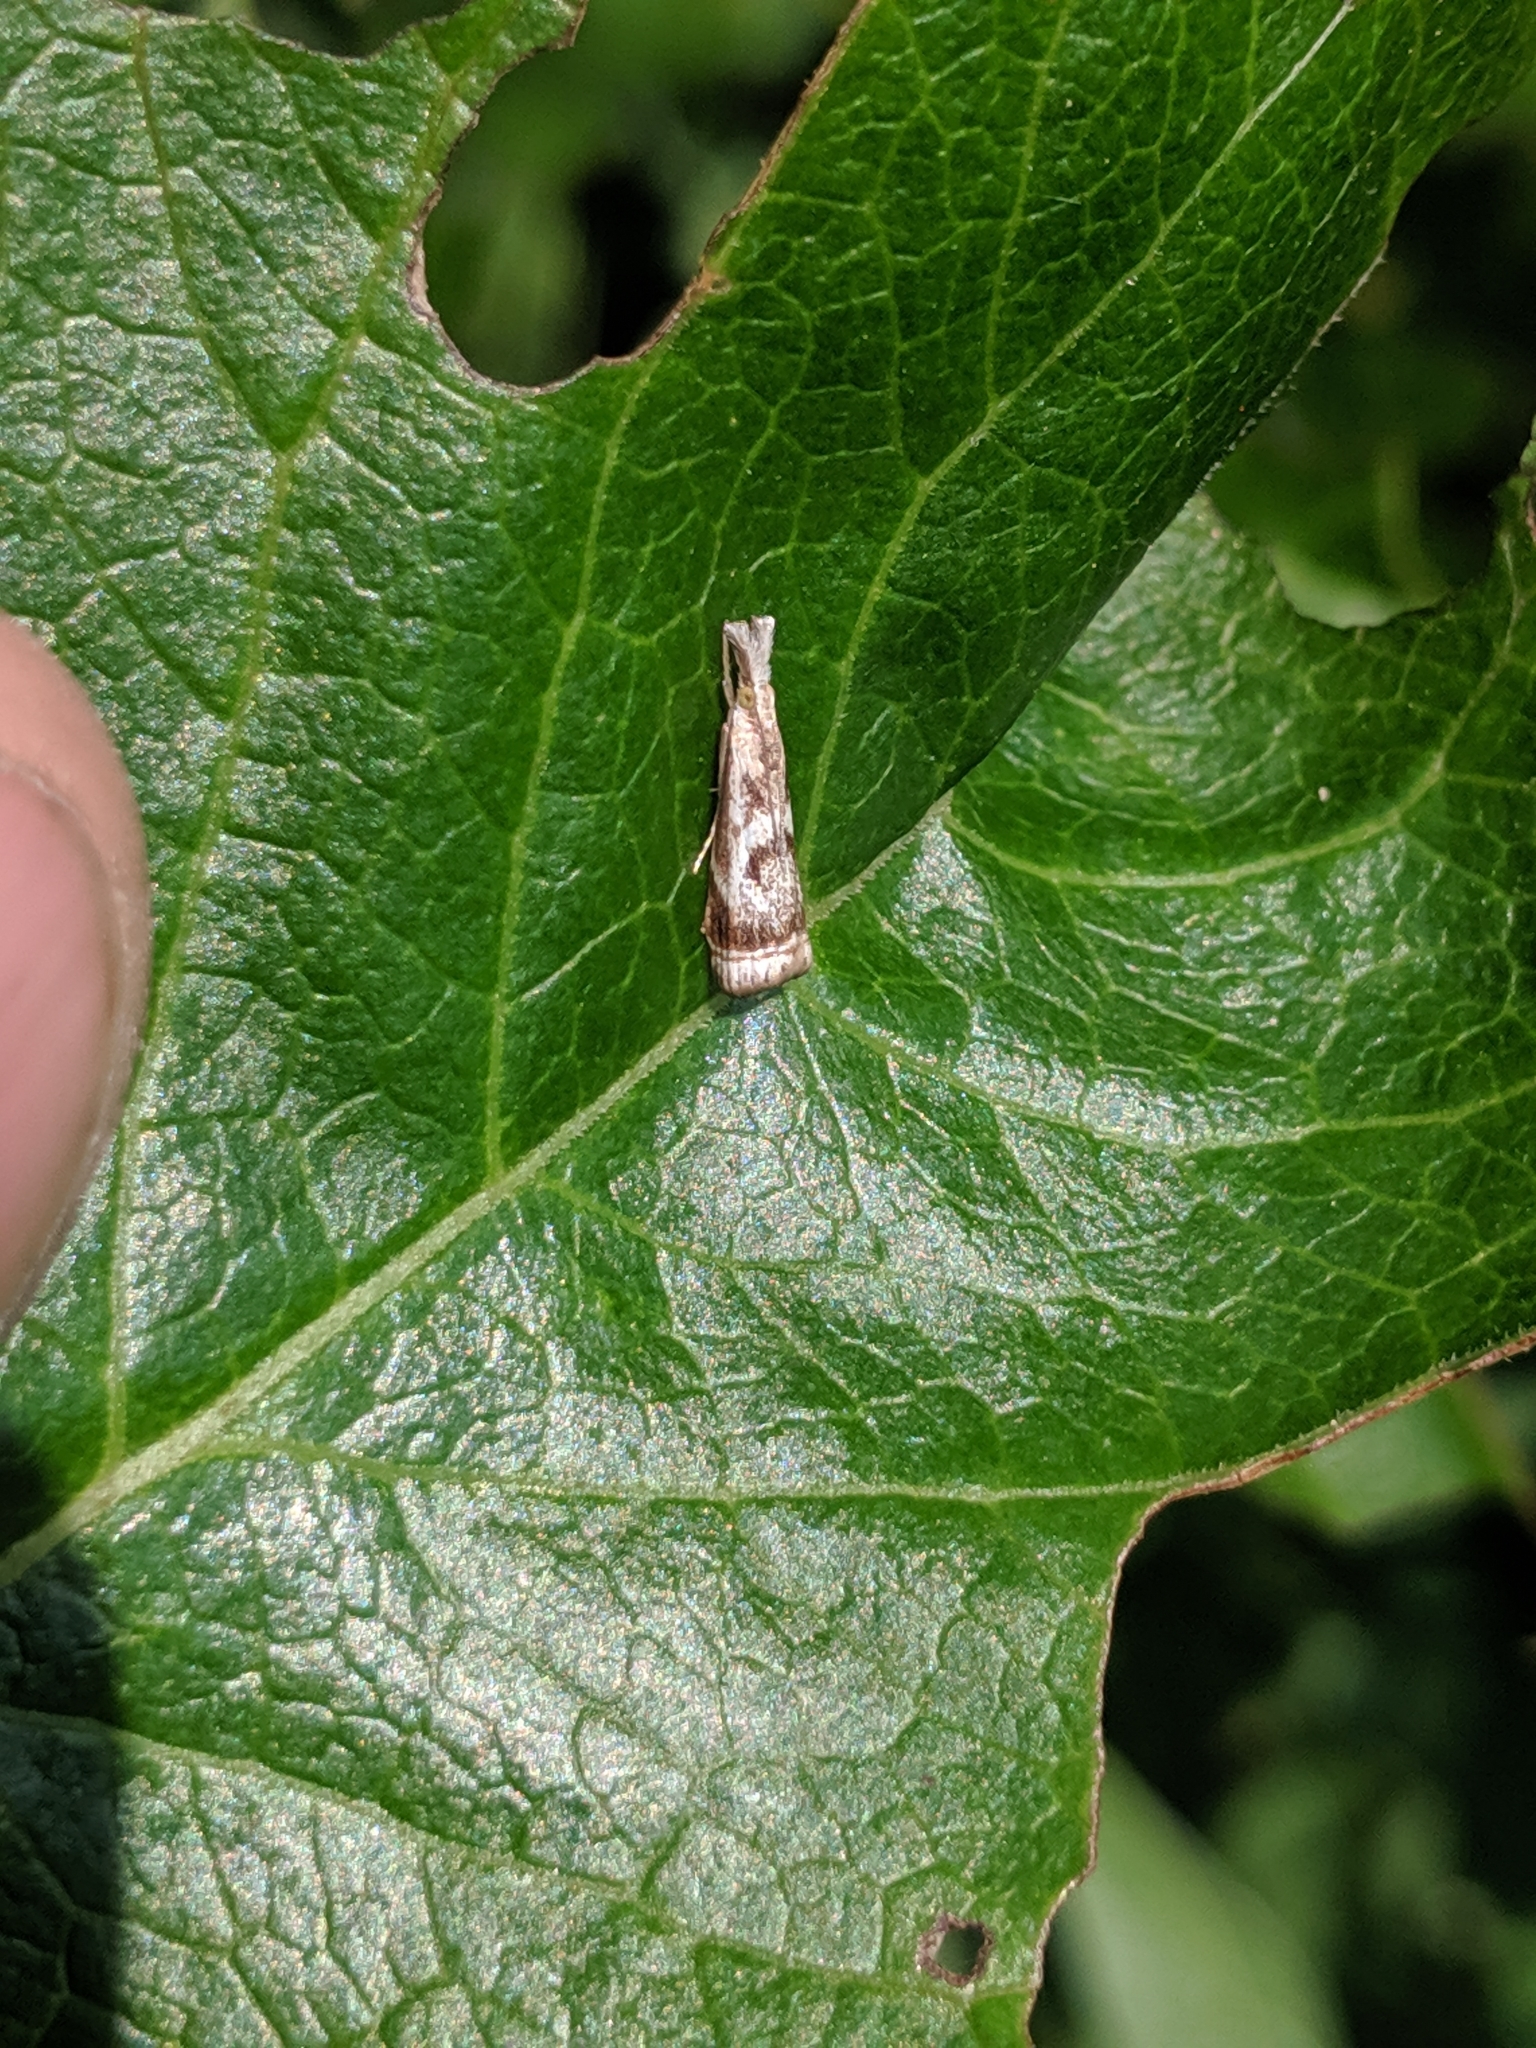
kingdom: Animalia
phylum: Arthropoda
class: Insecta
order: Lepidoptera
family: Crambidae
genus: Microcrambus
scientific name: Microcrambus elegans
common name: Elegant grass-veneer
